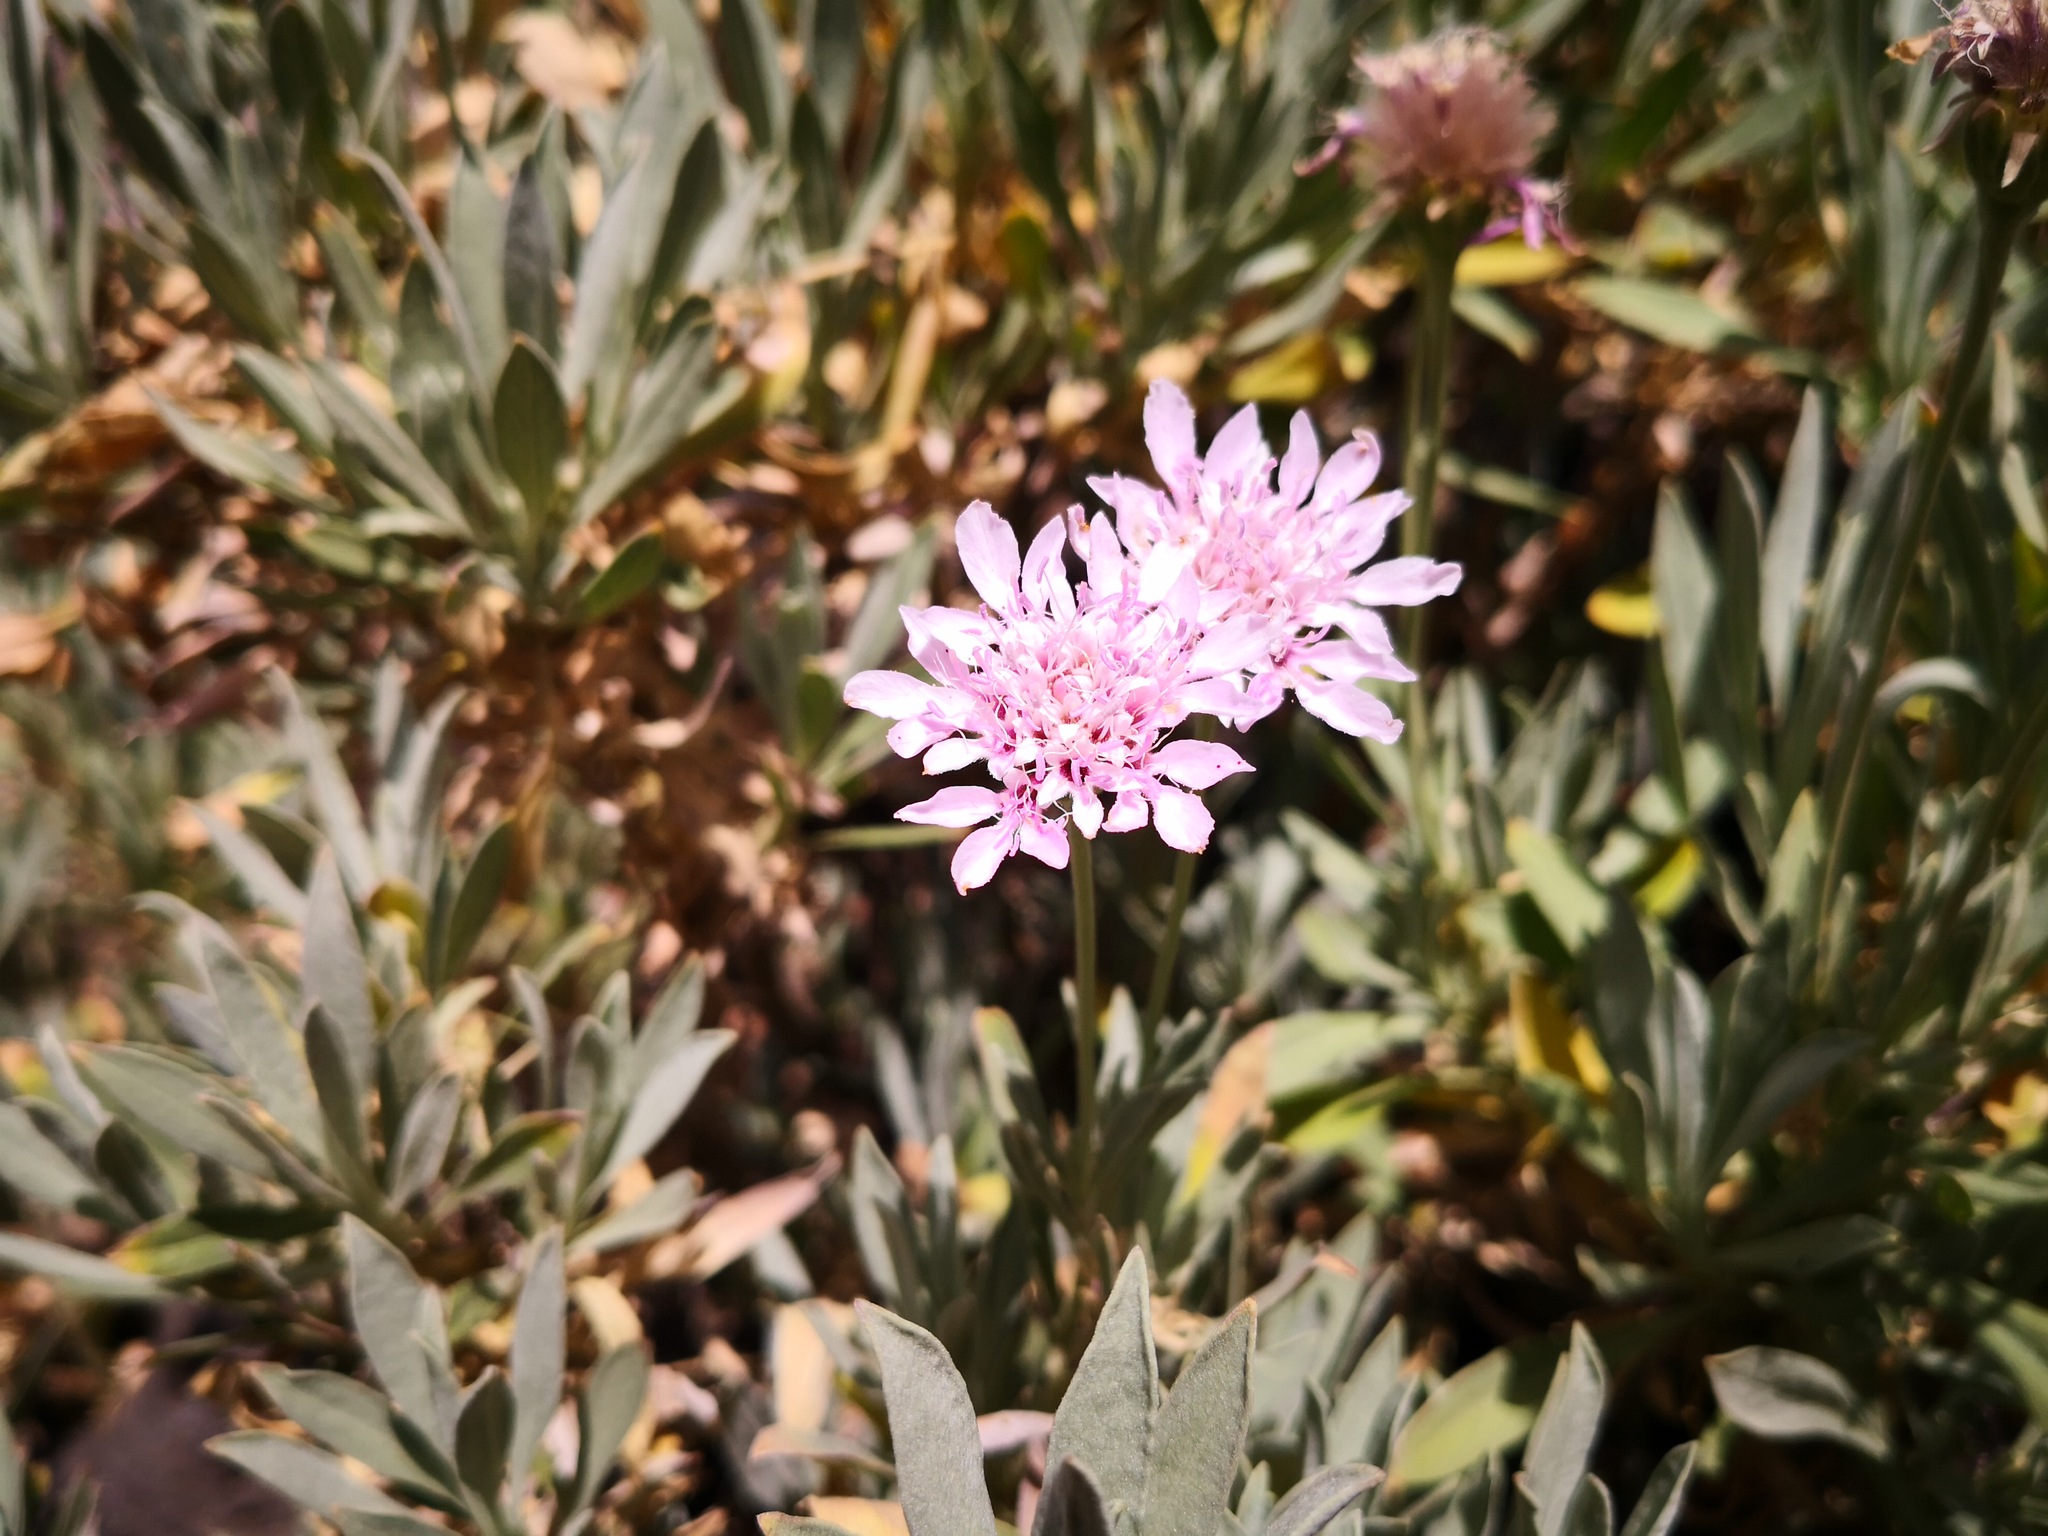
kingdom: Plantae
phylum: Tracheophyta
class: Magnoliopsida
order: Dipsacales
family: Caprifoliaceae
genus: Pterocephalus
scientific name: Pterocephalus lasiospermus
